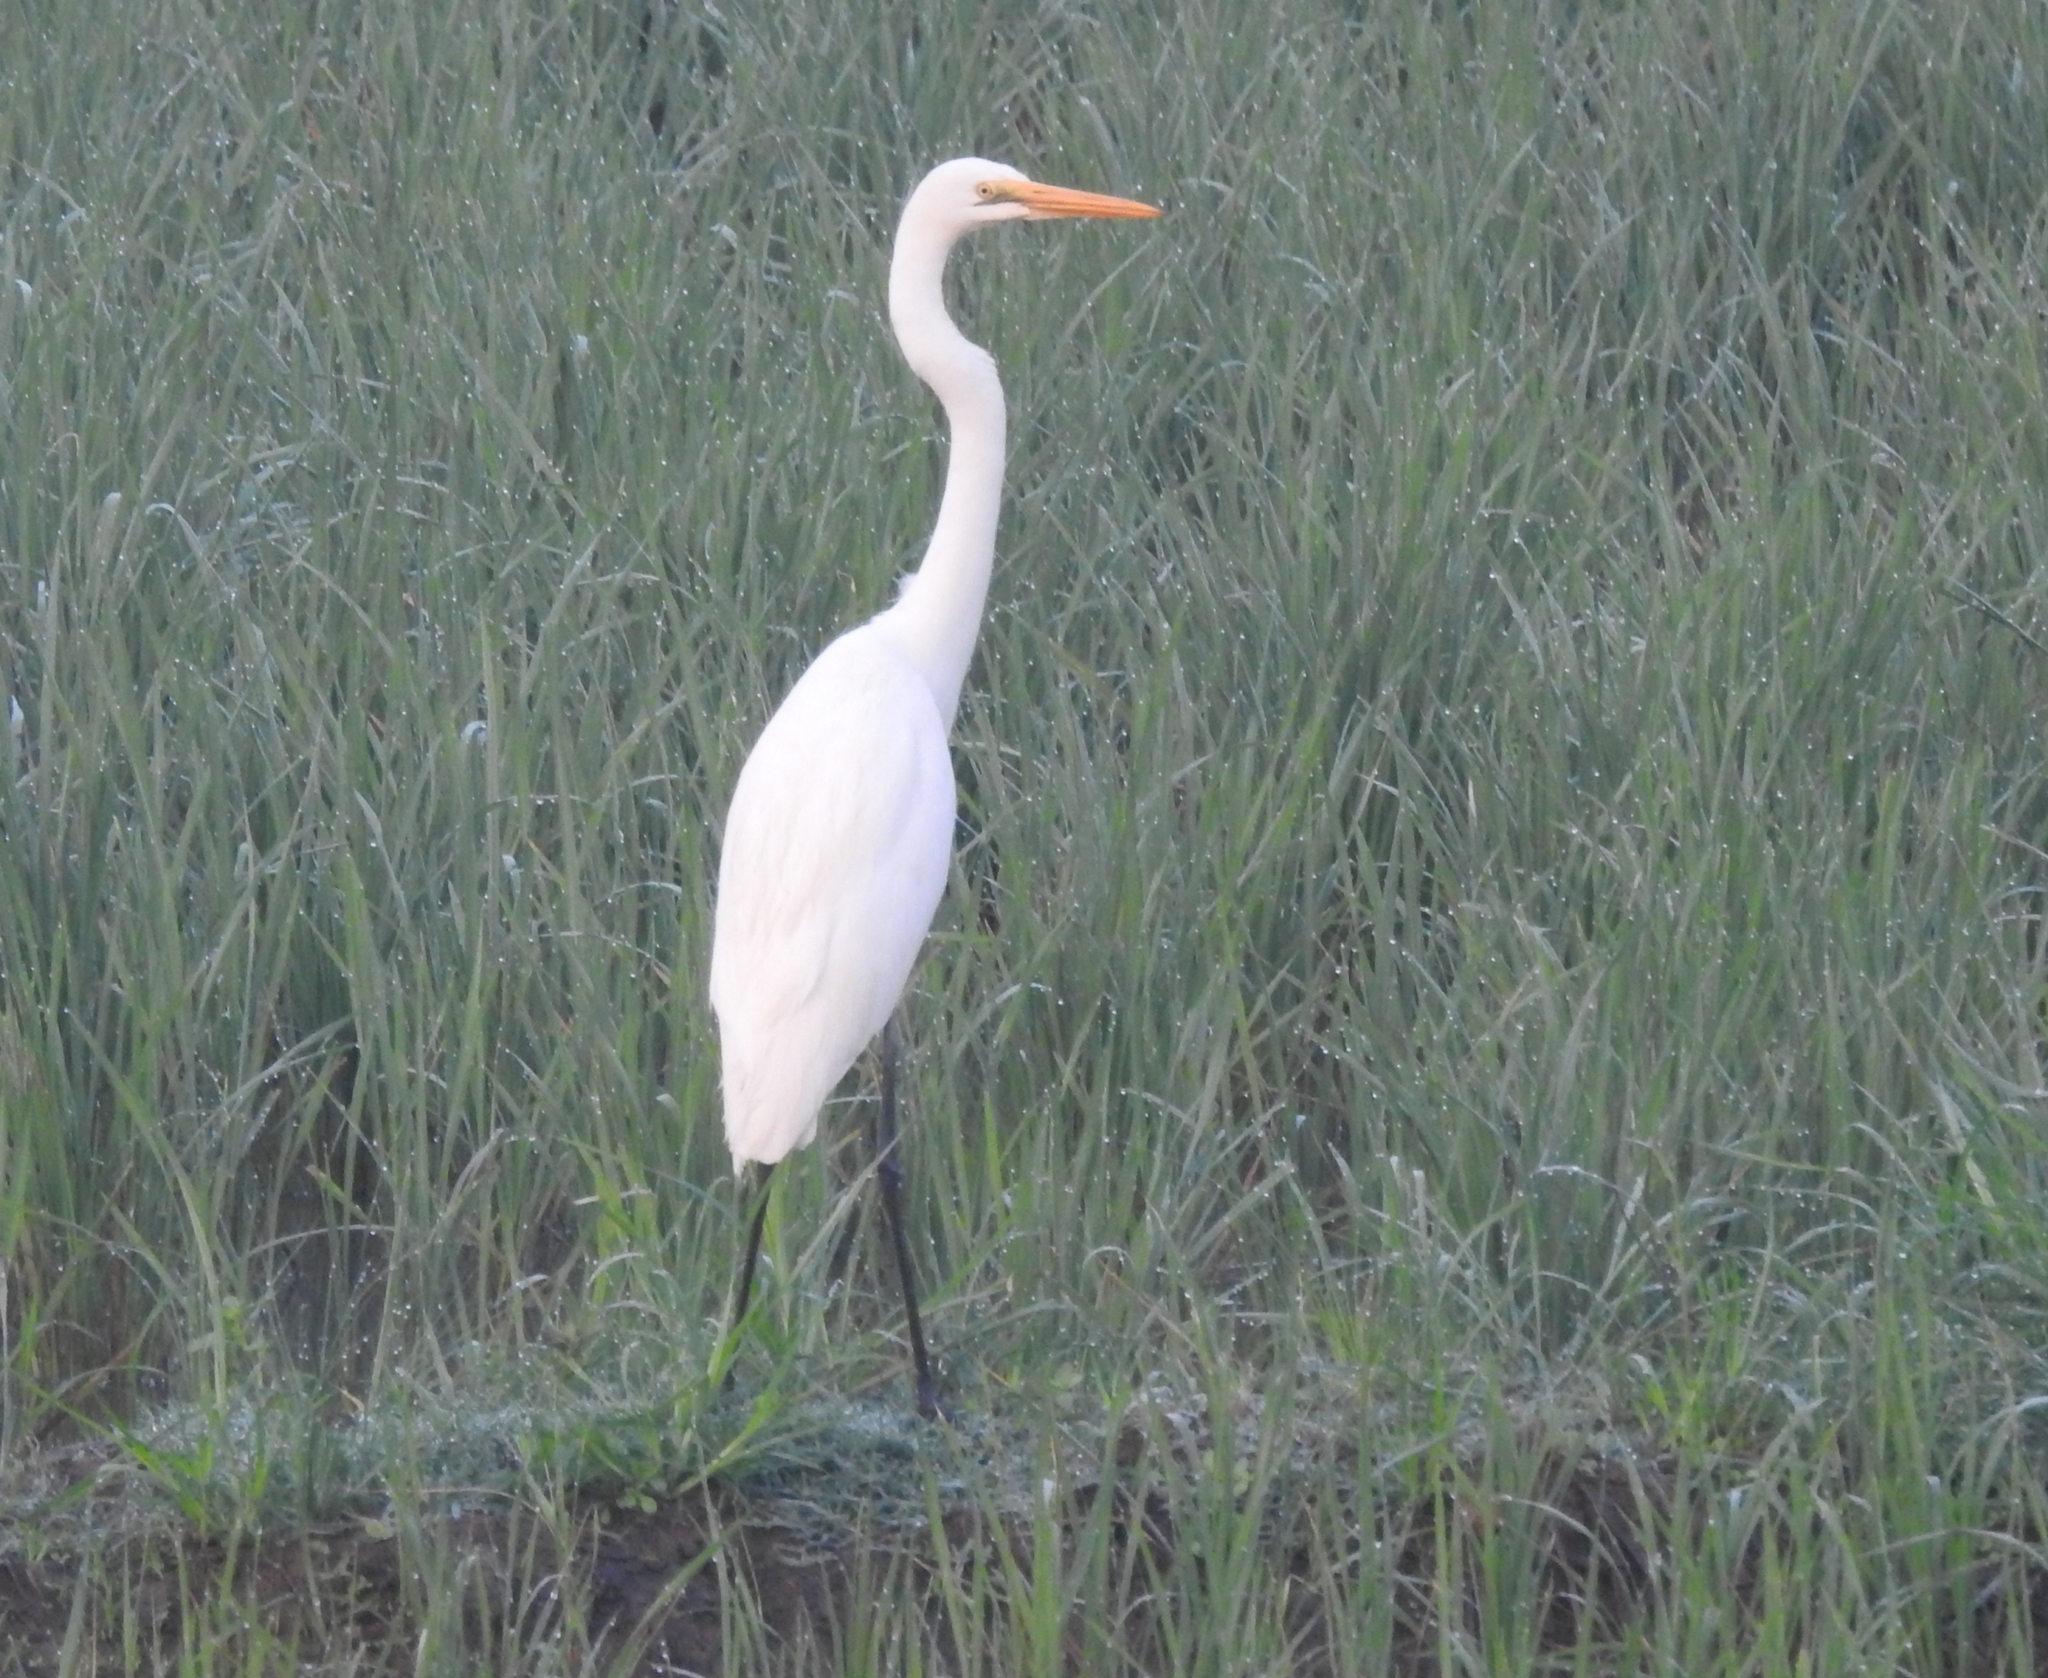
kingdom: Animalia
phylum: Chordata
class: Aves
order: Pelecaniformes
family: Ardeidae
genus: Ardea
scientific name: Ardea alba
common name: Great egret
